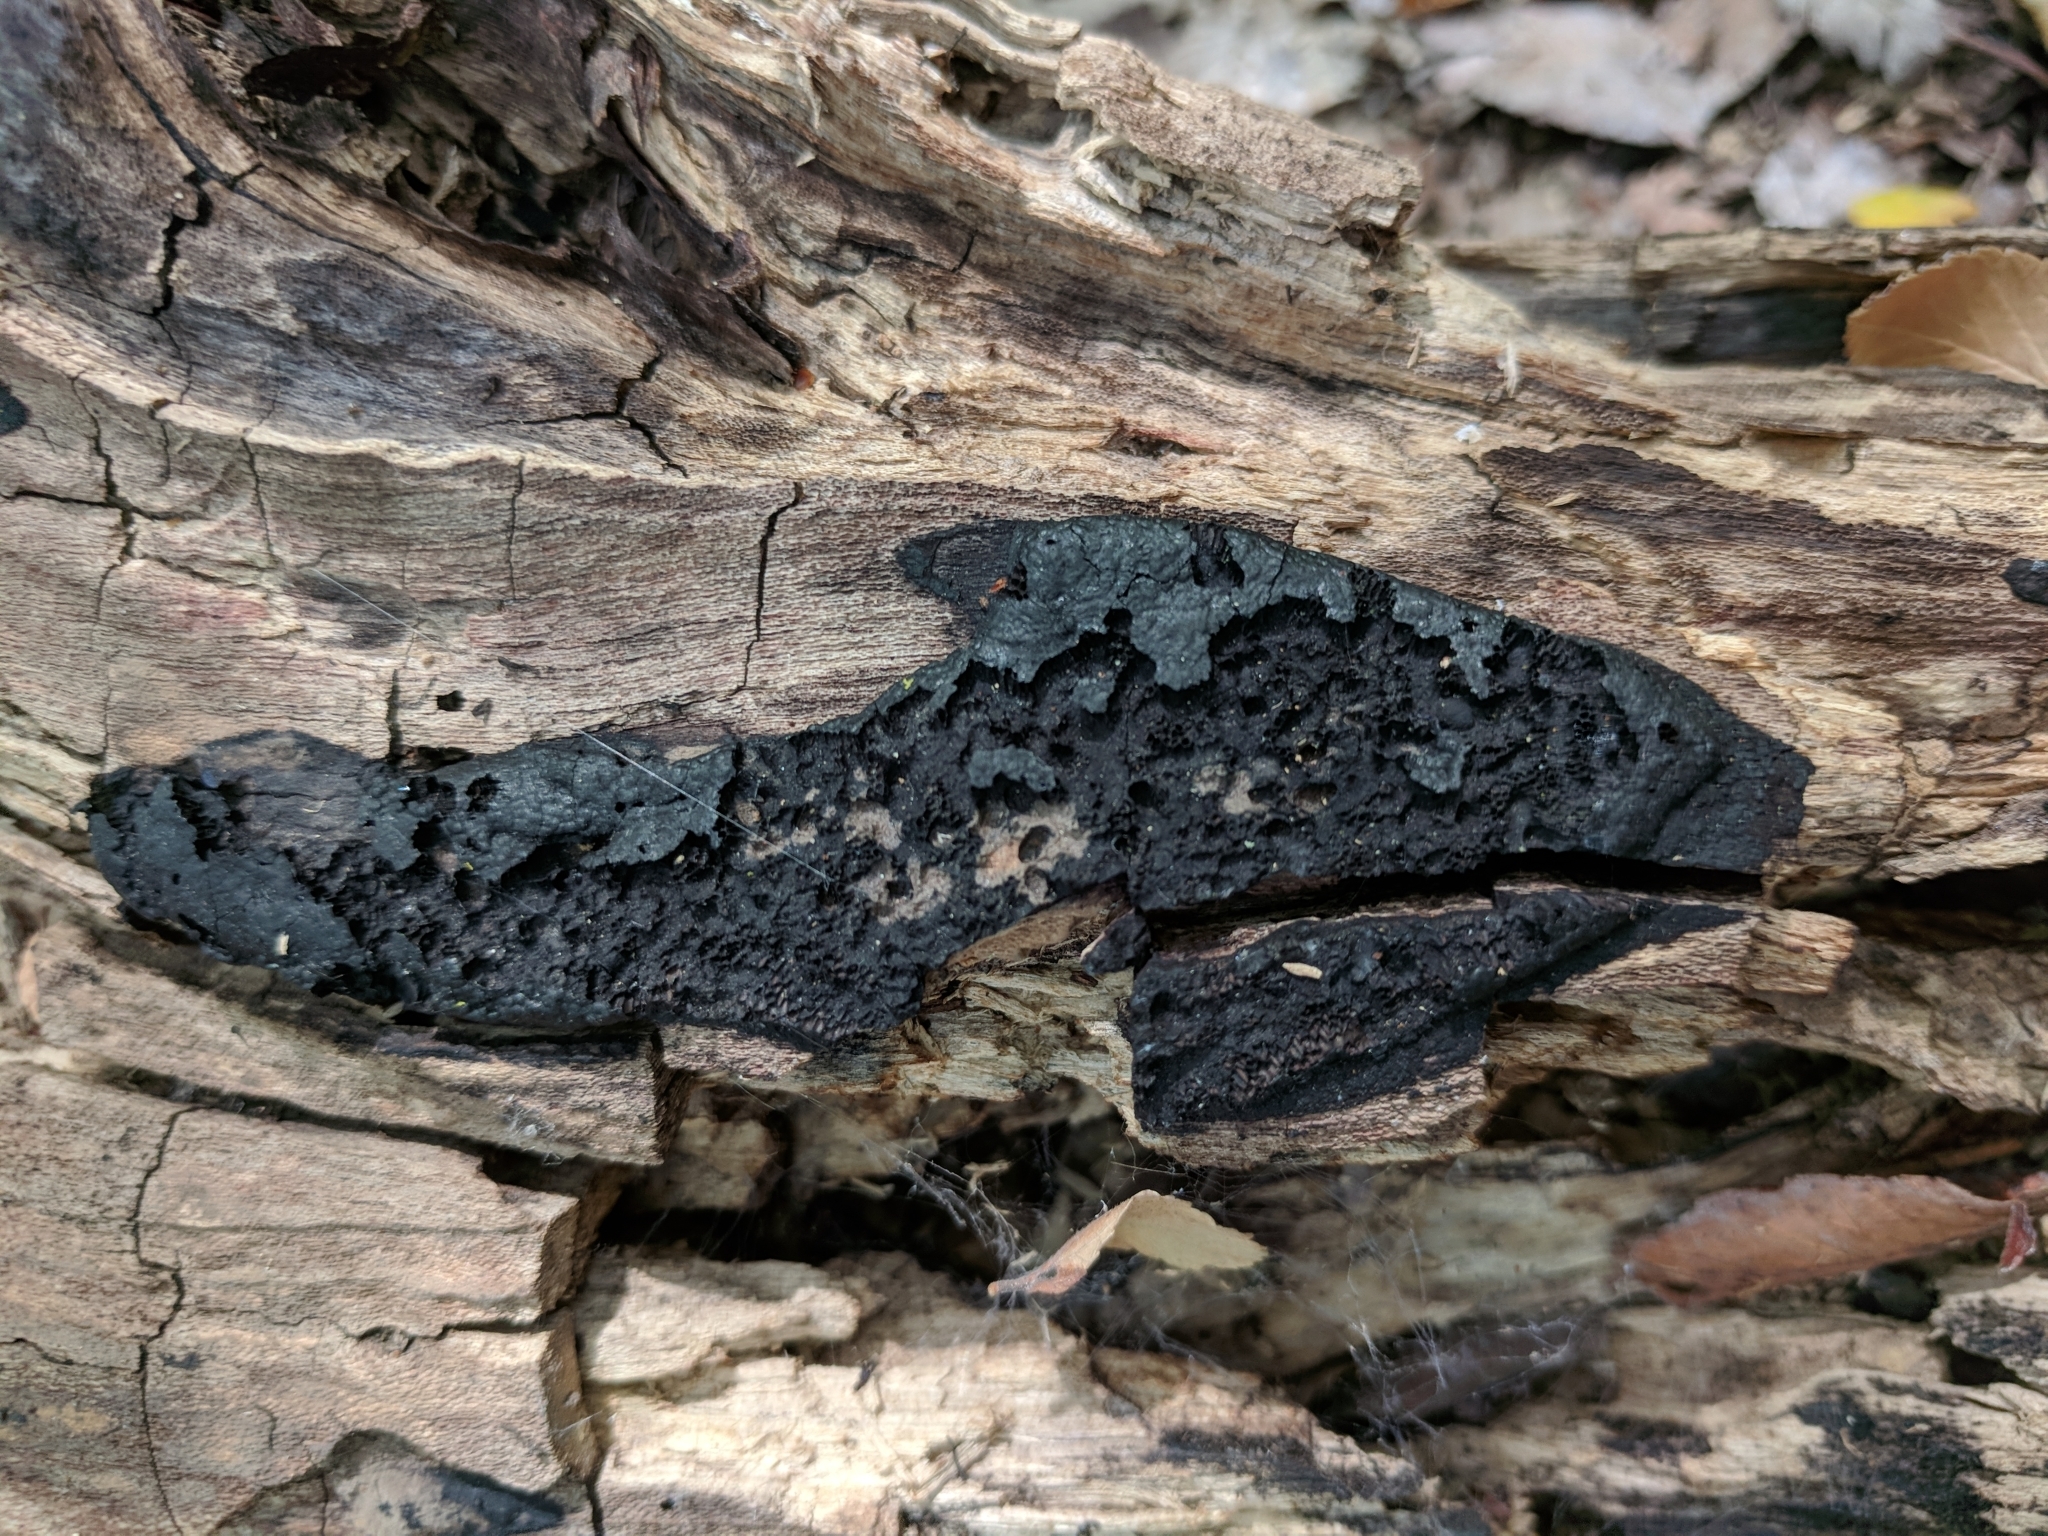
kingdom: Fungi
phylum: Ascomycota
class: Sordariomycetes
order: Xylariales
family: Xylariaceae
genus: Kretzschmaria
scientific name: Kretzschmaria deusta
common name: Brittle cinder
